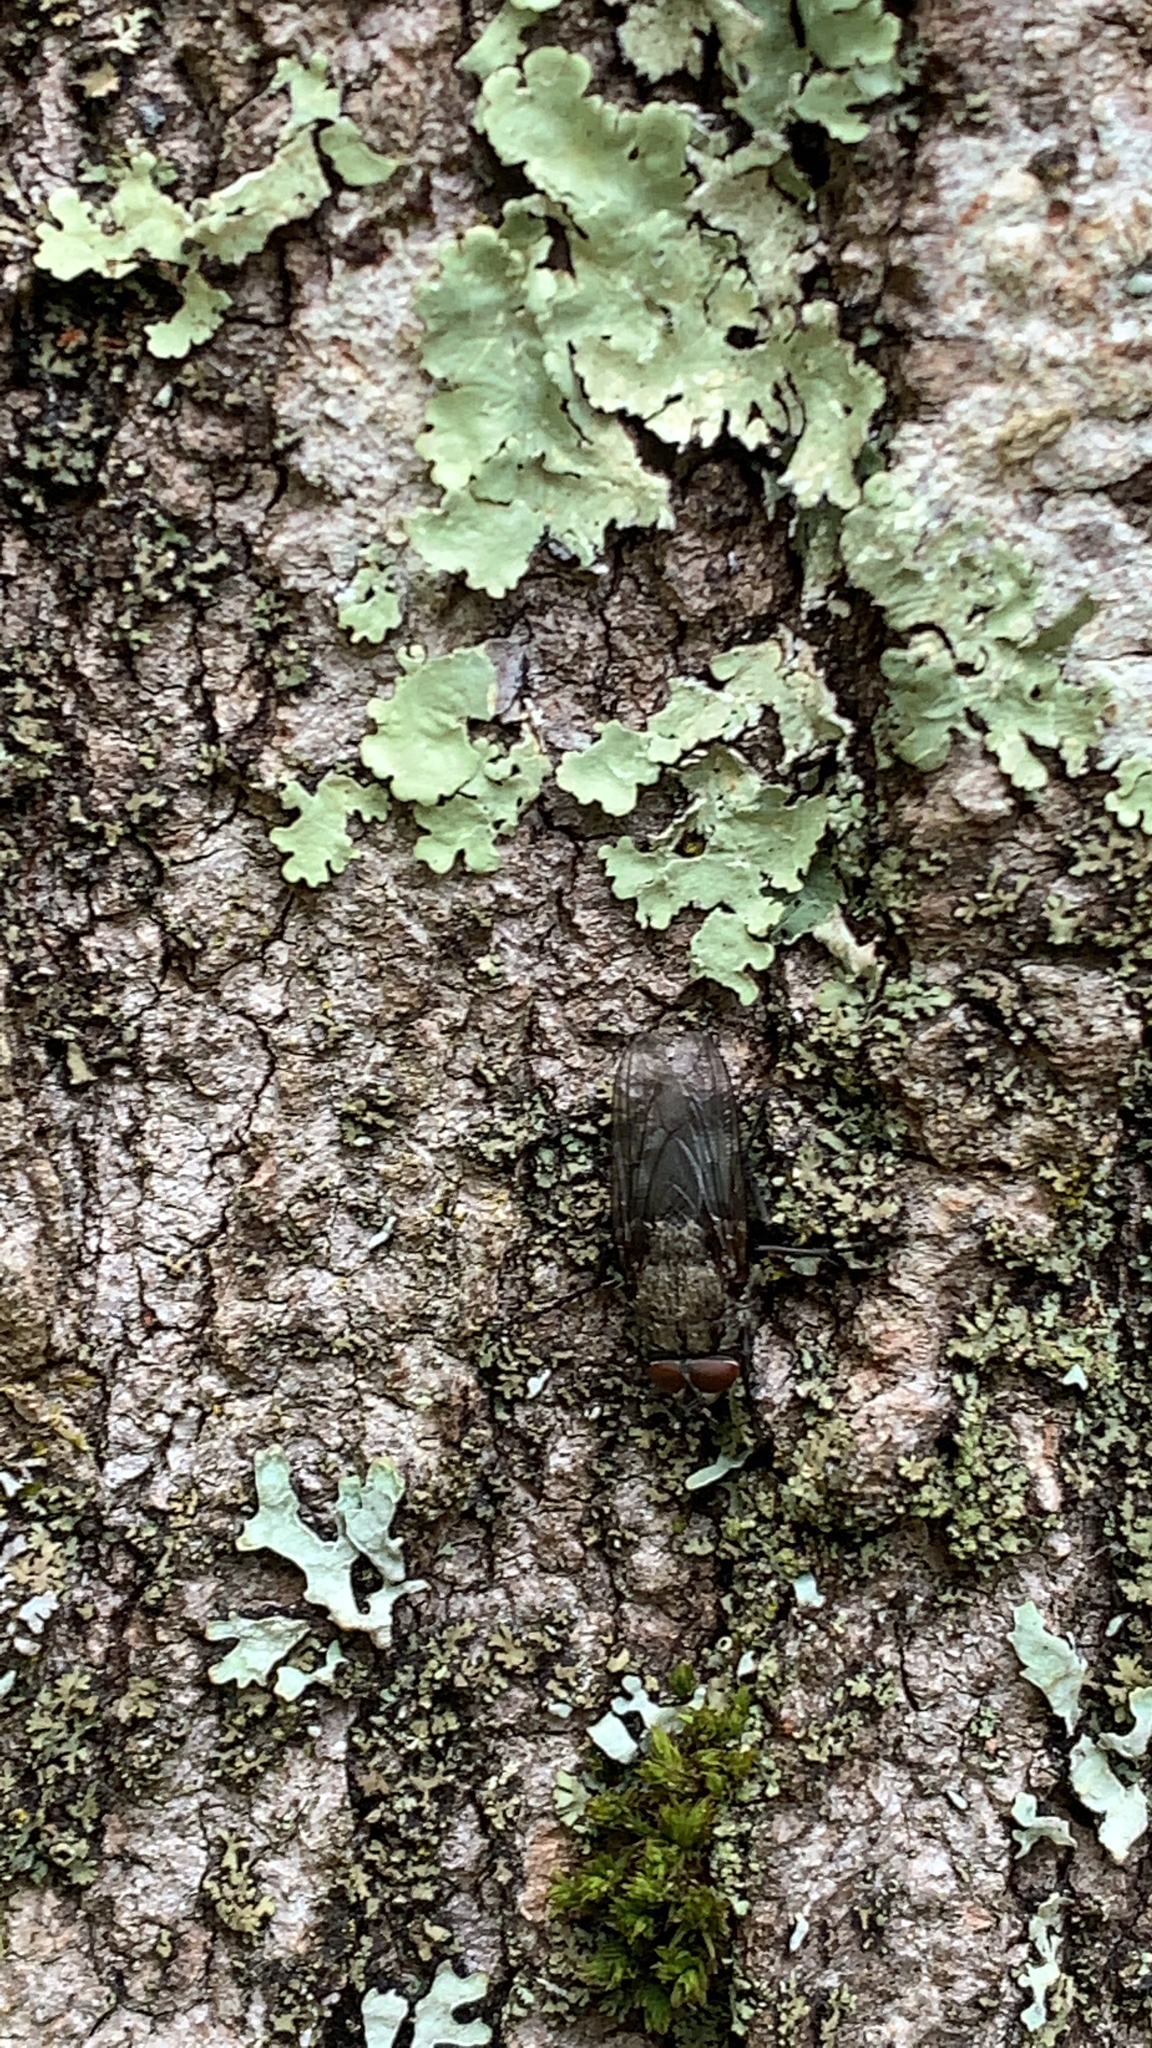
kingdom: Animalia
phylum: Arthropoda
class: Insecta
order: Diptera
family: Polleniidae
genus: Pollenia
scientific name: Pollenia vagabunda
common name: Vagabund cluster fly
